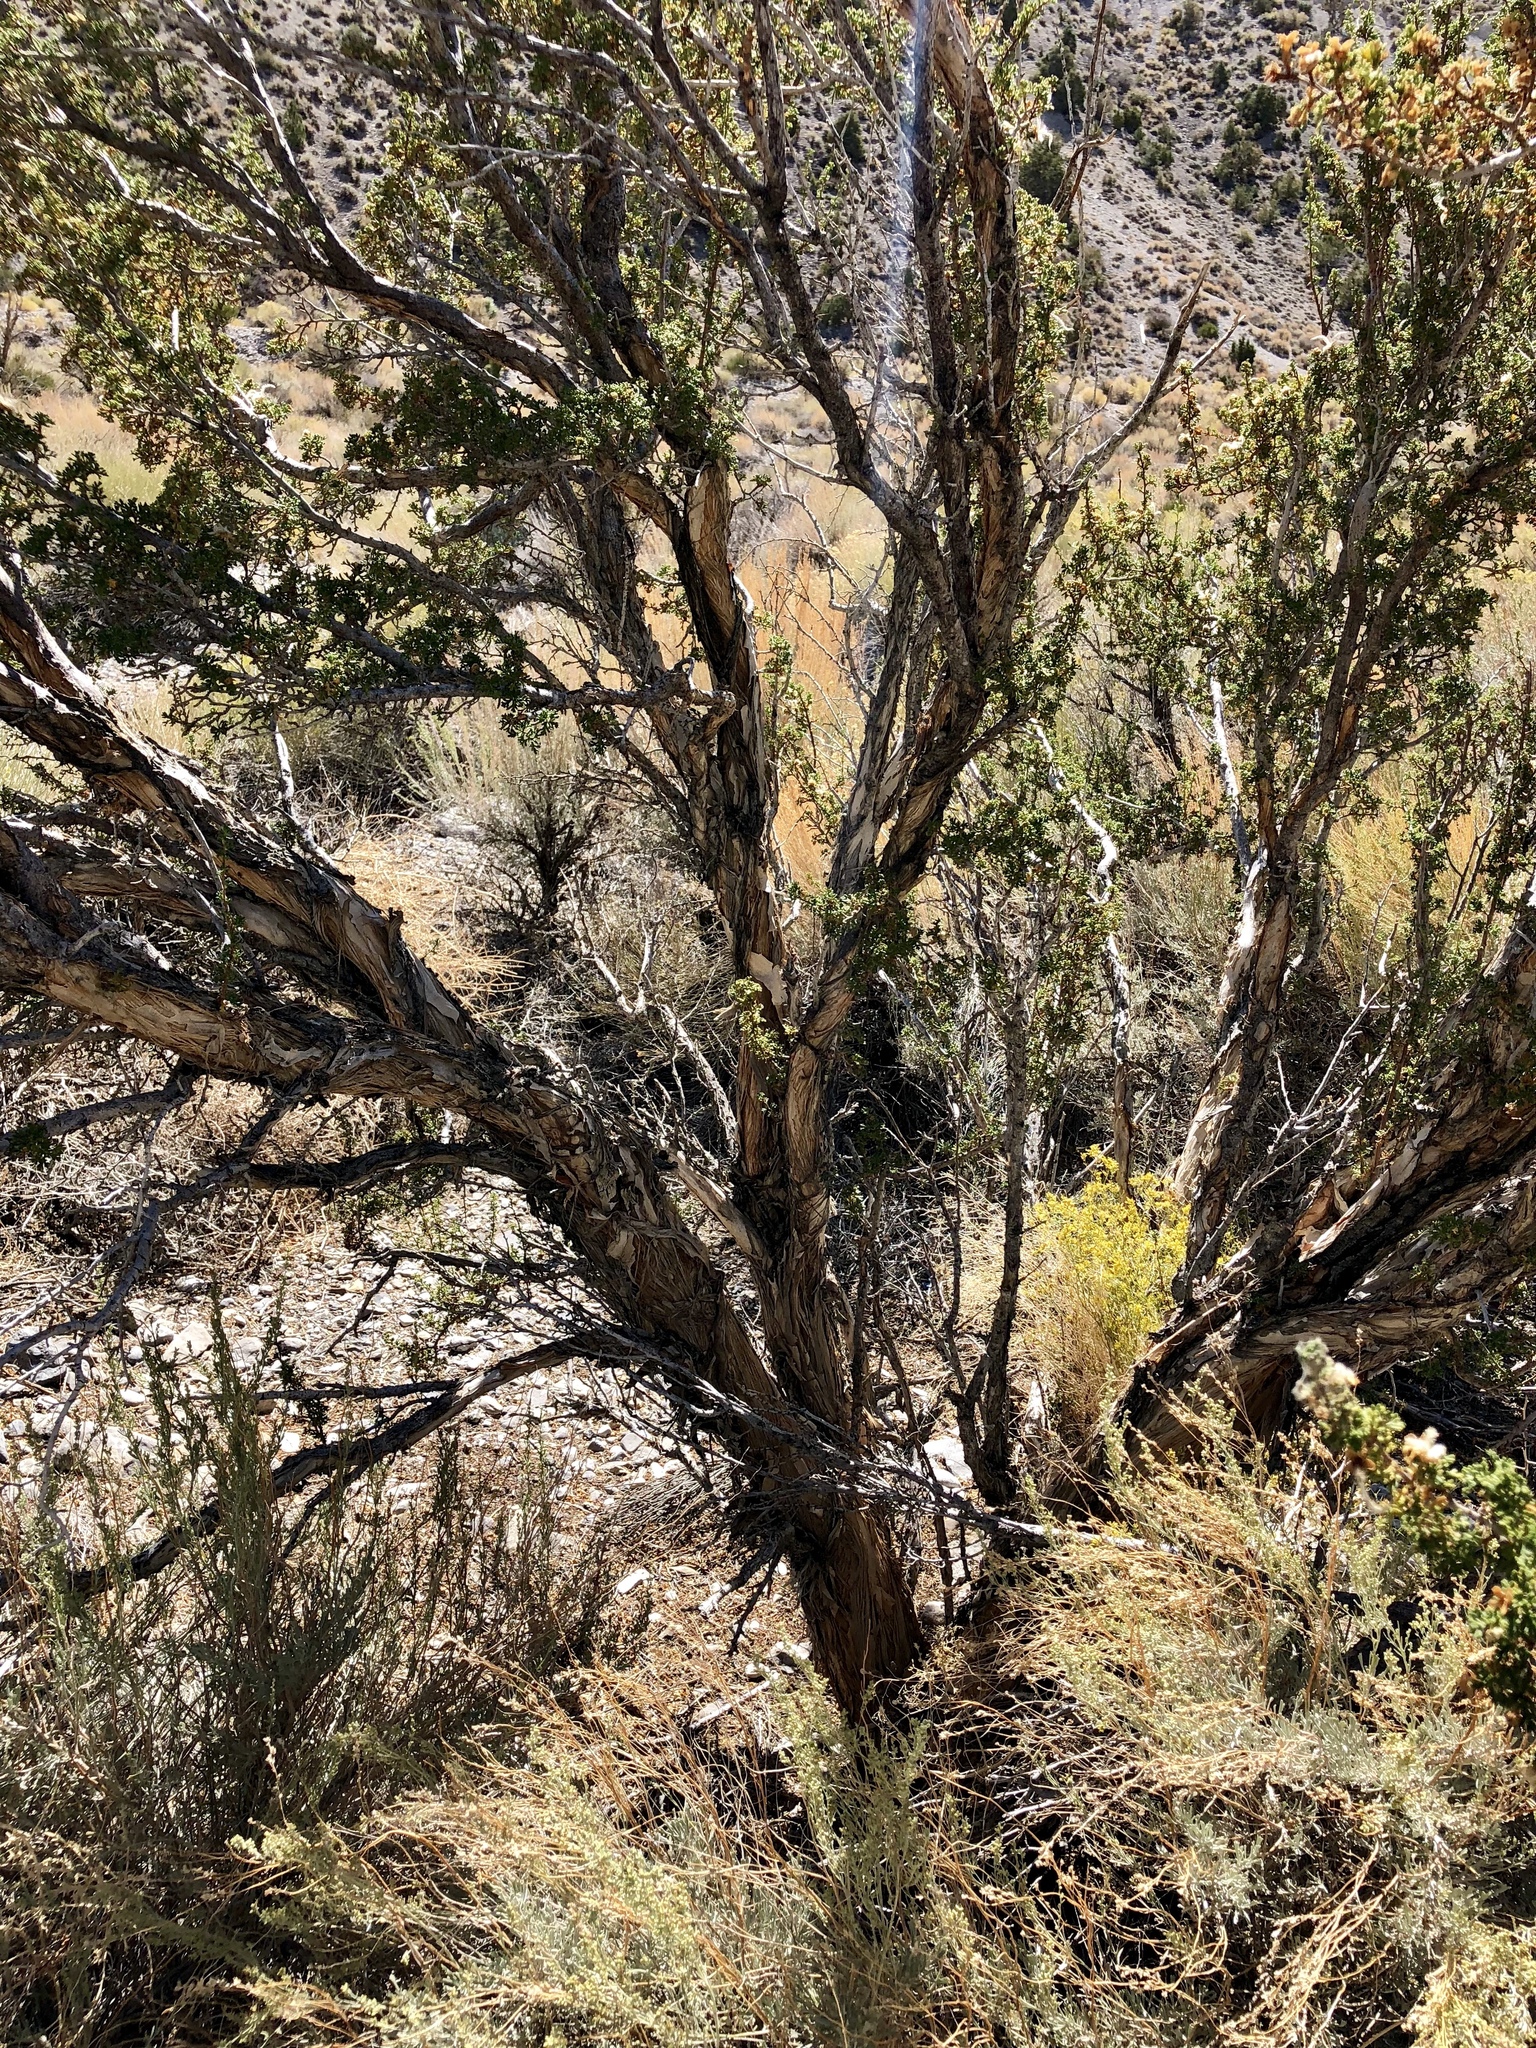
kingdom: Plantae
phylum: Tracheophyta
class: Magnoliopsida
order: Rosales
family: Rosaceae
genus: Purshia
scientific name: Purshia stansburiana
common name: Stansbury's cliffrose
